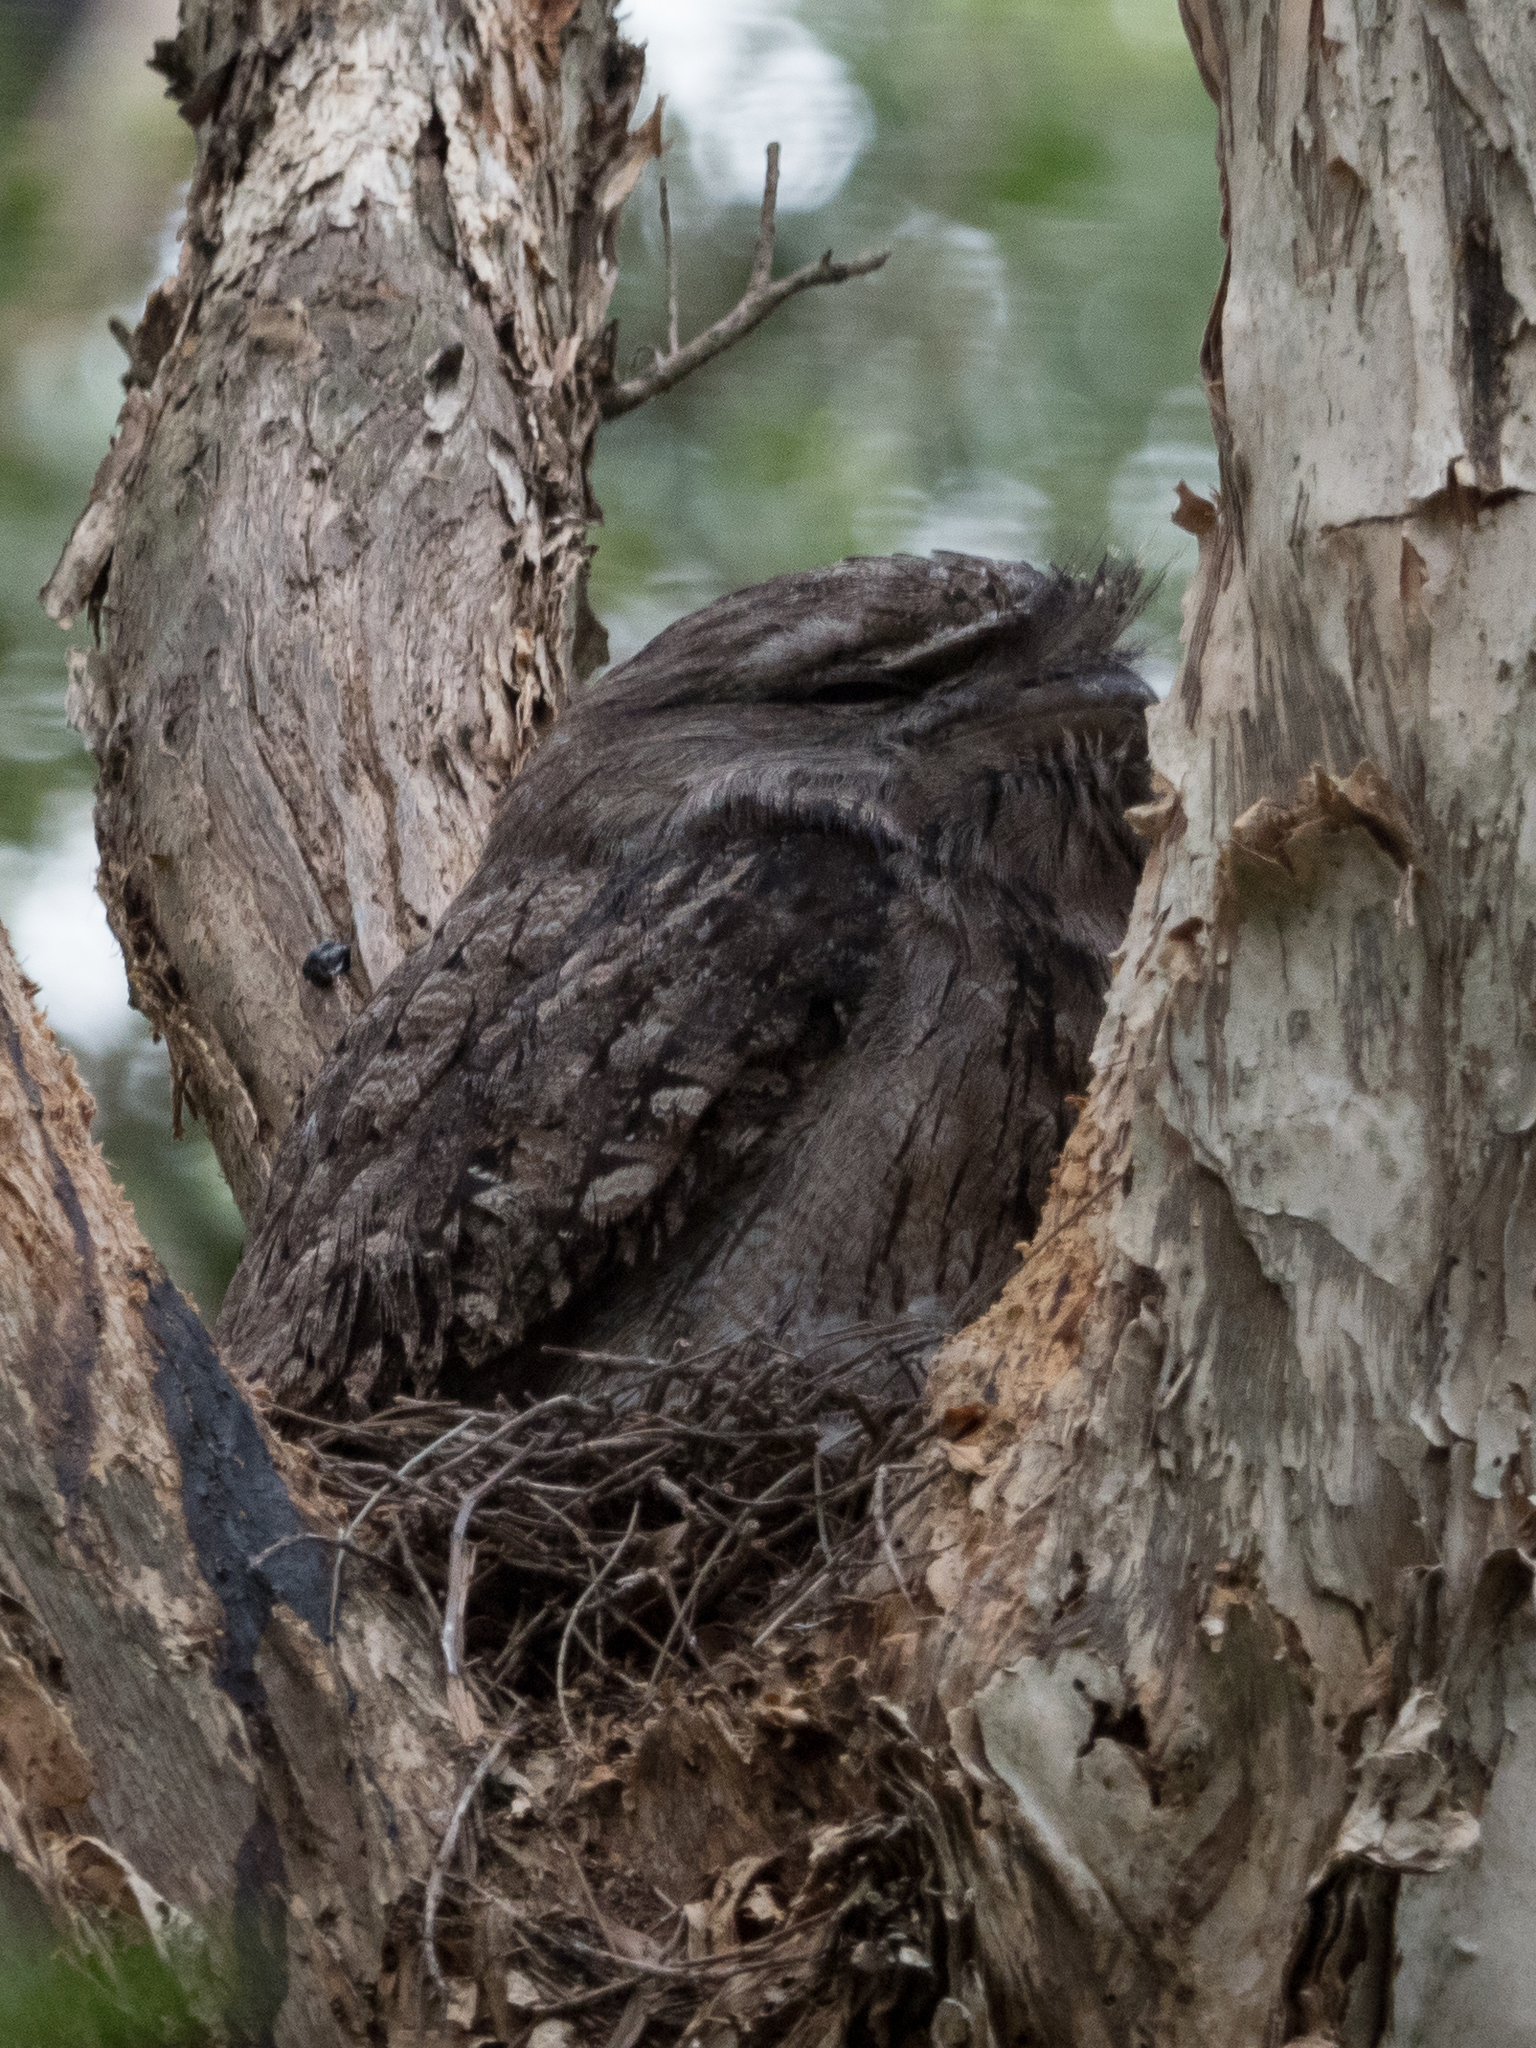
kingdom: Animalia
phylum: Chordata
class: Aves
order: Caprimulgiformes
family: Podargidae
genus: Podargus
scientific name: Podargus strigoides
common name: Tawny frogmouth
